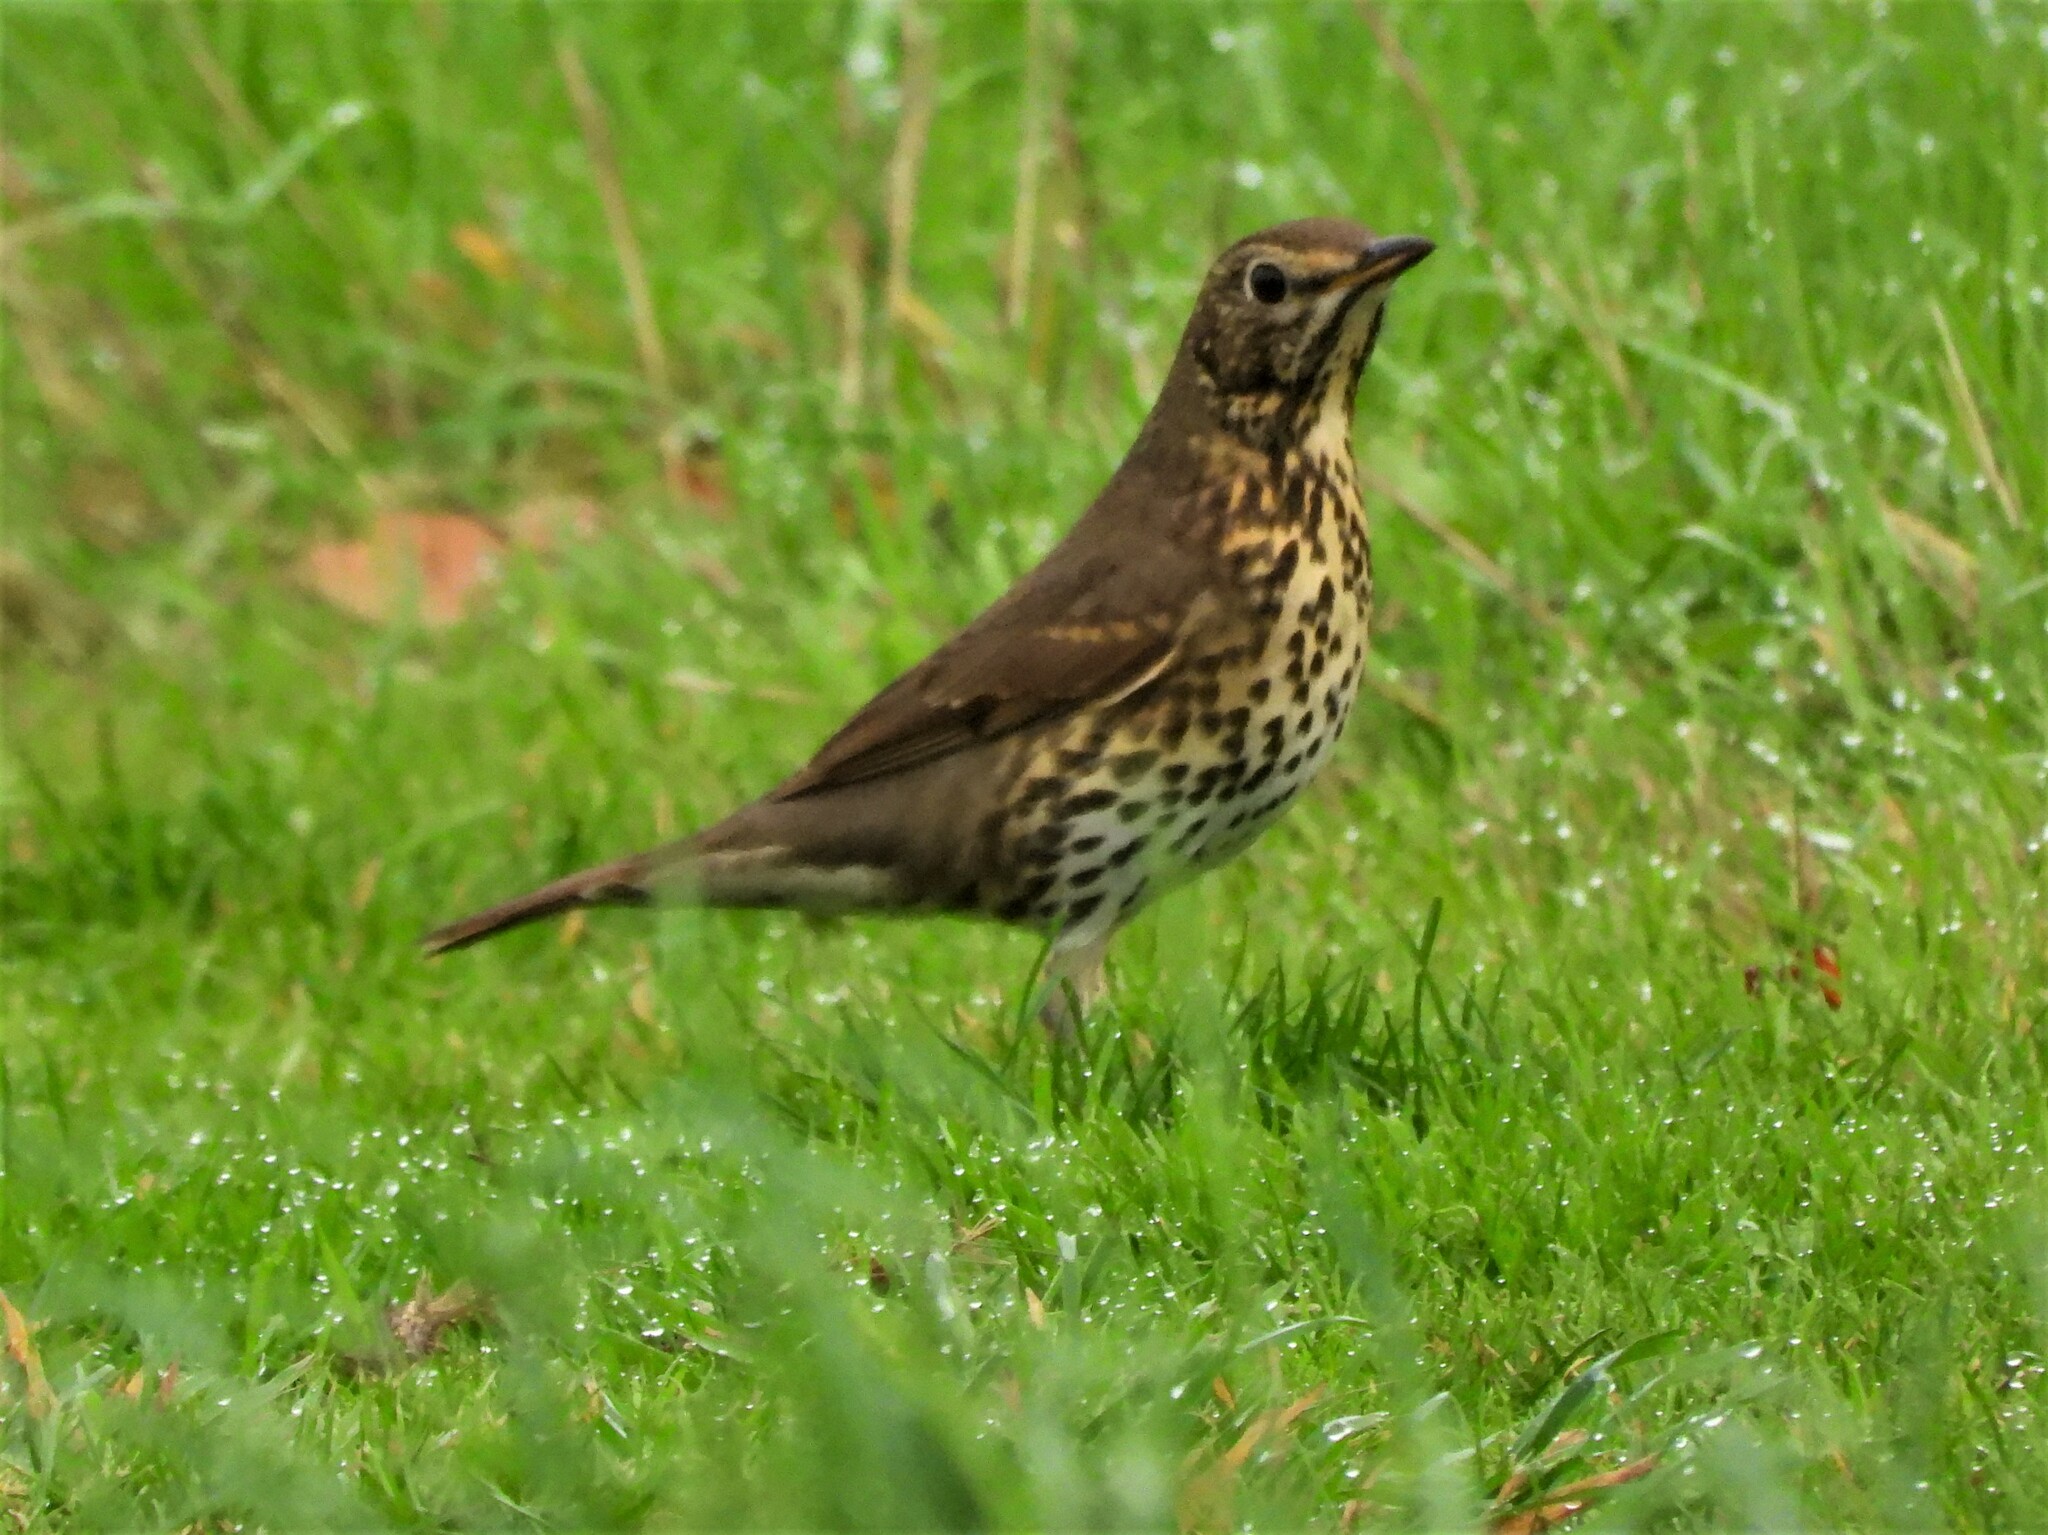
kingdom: Animalia
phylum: Chordata
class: Aves
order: Passeriformes
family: Turdidae
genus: Turdus
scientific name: Turdus philomelos
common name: Song thrush
